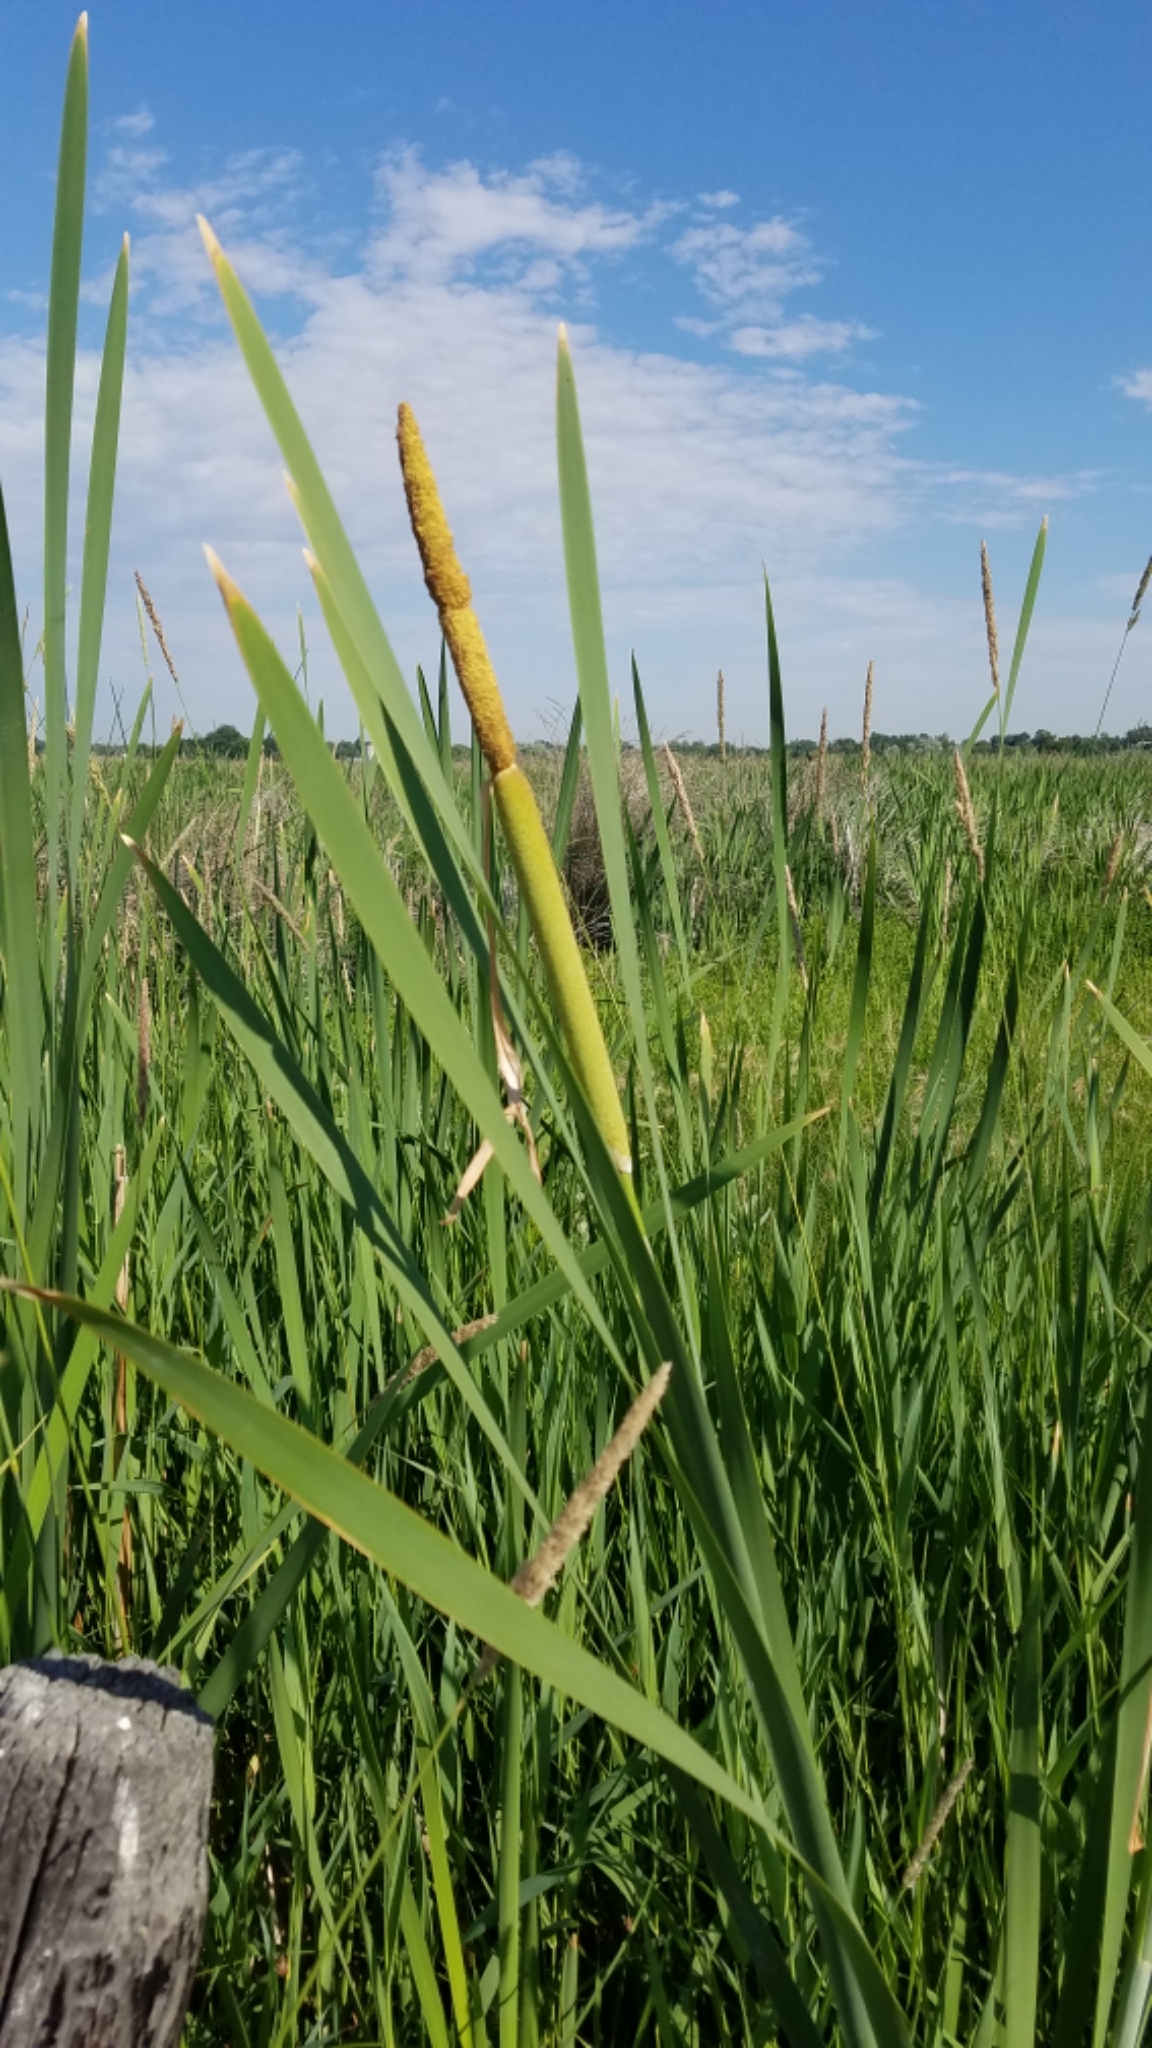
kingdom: Plantae
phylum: Tracheophyta
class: Liliopsida
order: Poales
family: Typhaceae
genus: Typha
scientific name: Typha latifolia
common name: Broadleaf cattail
